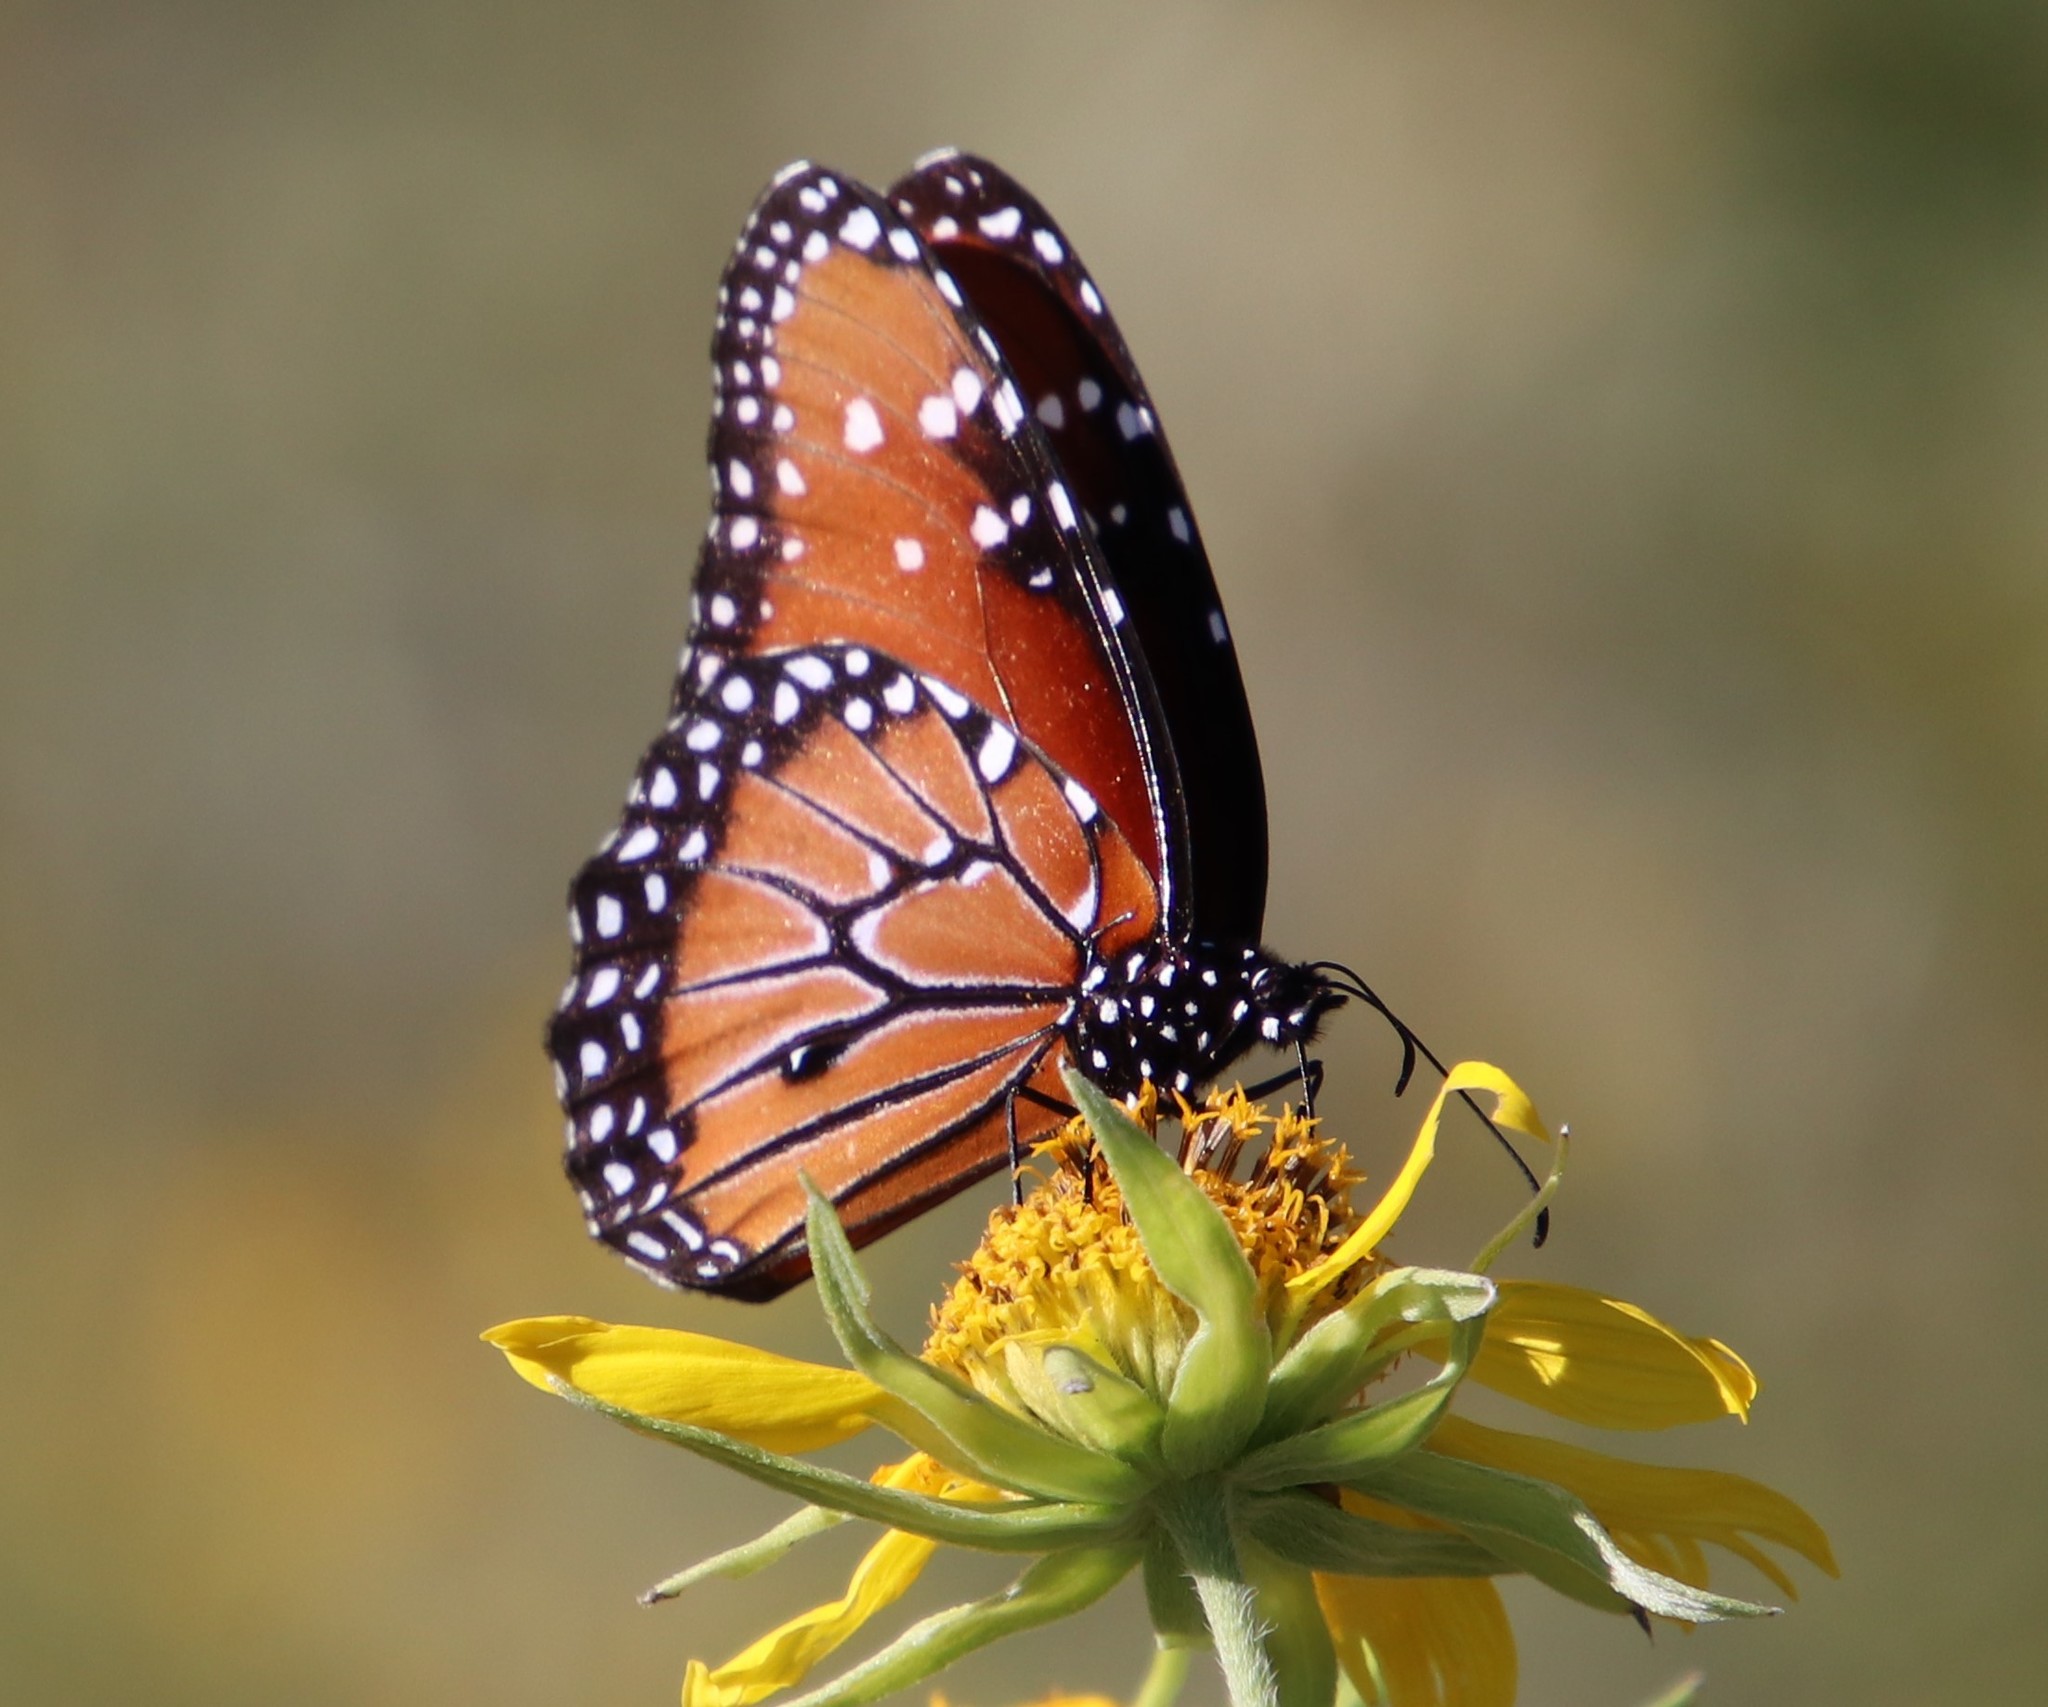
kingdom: Animalia
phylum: Arthropoda
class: Insecta
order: Lepidoptera
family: Nymphalidae
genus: Danaus
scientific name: Danaus gilippus
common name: Queen
